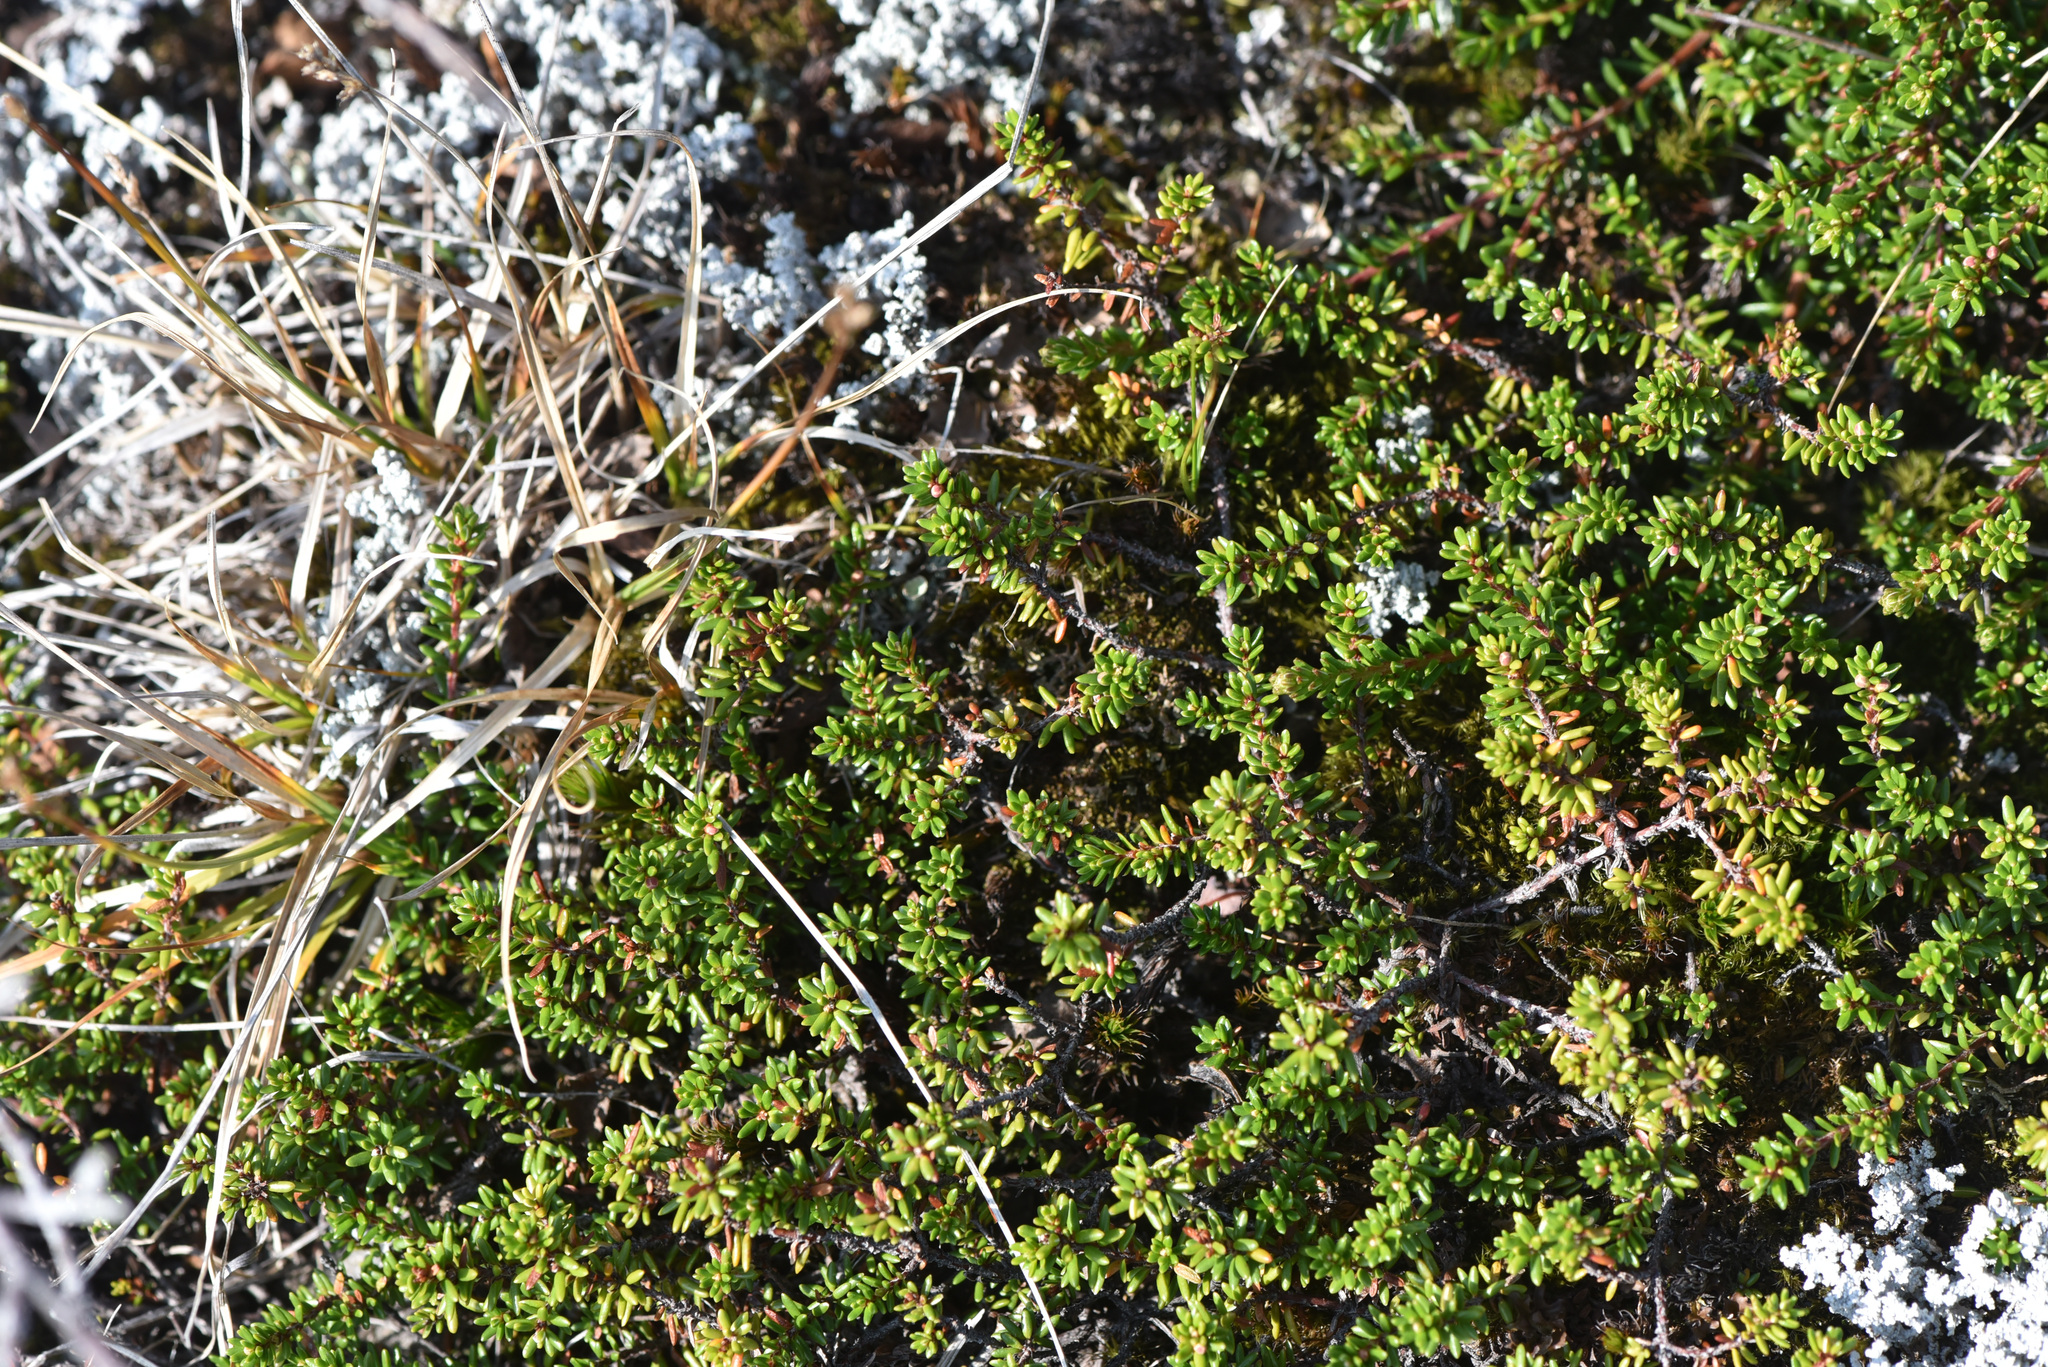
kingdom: Plantae
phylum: Tracheophyta
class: Magnoliopsida
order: Ericales
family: Ericaceae
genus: Empetrum
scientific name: Empetrum nigrum
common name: Black crowberry
